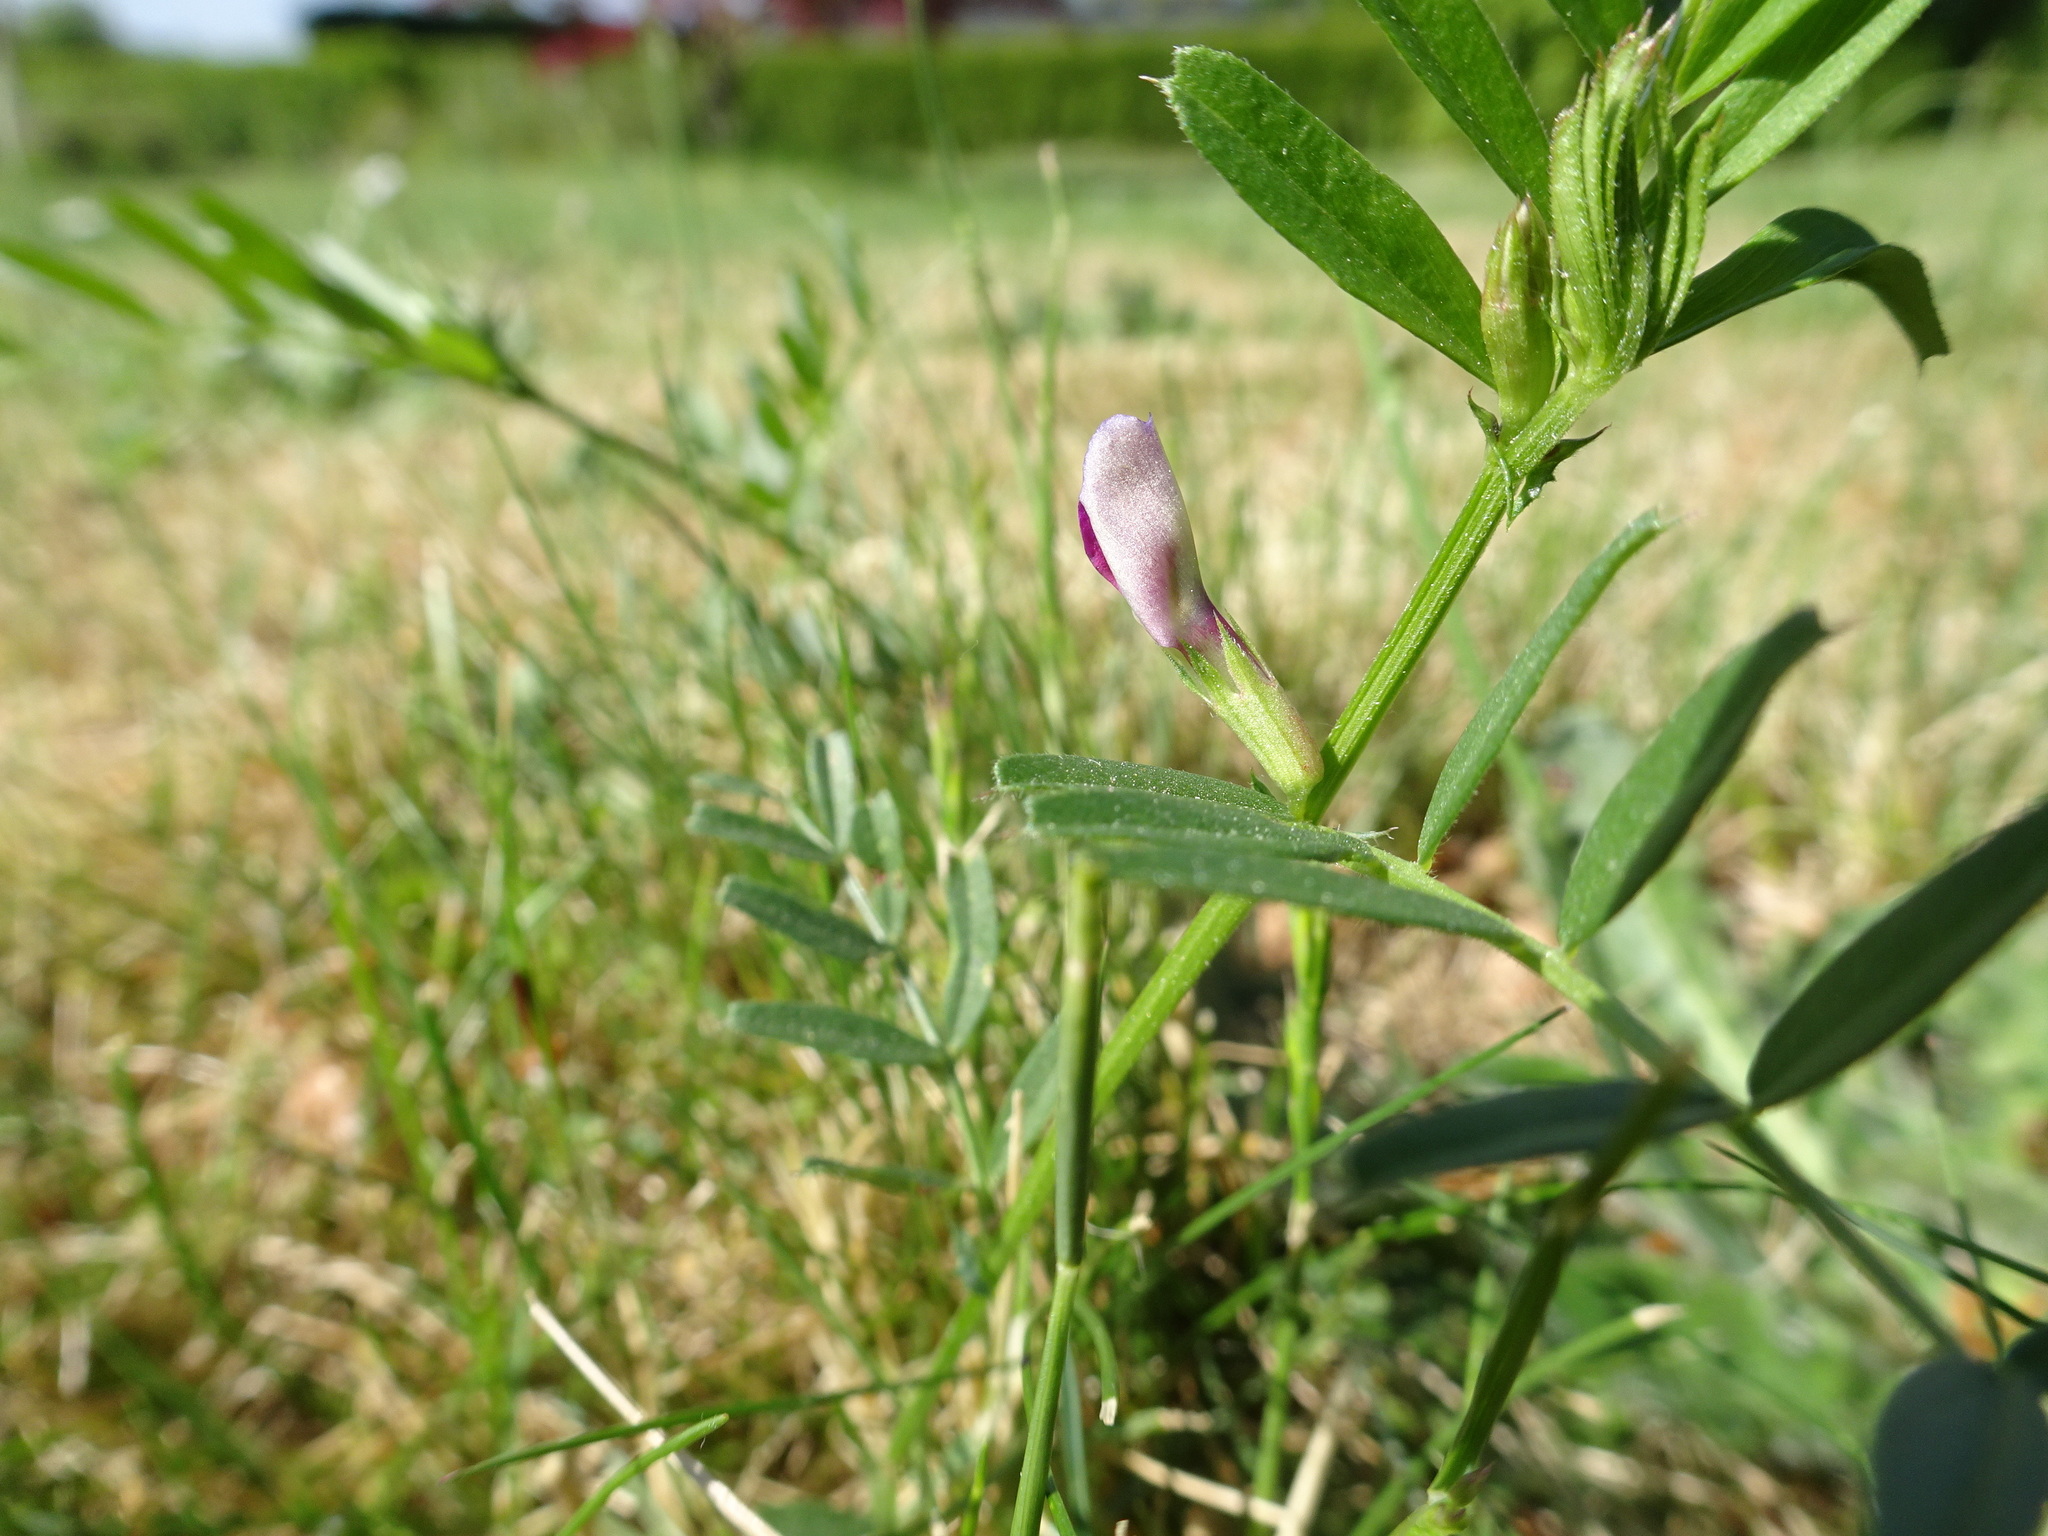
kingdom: Plantae
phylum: Tracheophyta
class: Magnoliopsida
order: Fabales
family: Fabaceae
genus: Vicia
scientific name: Vicia sativa
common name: Garden vetch
